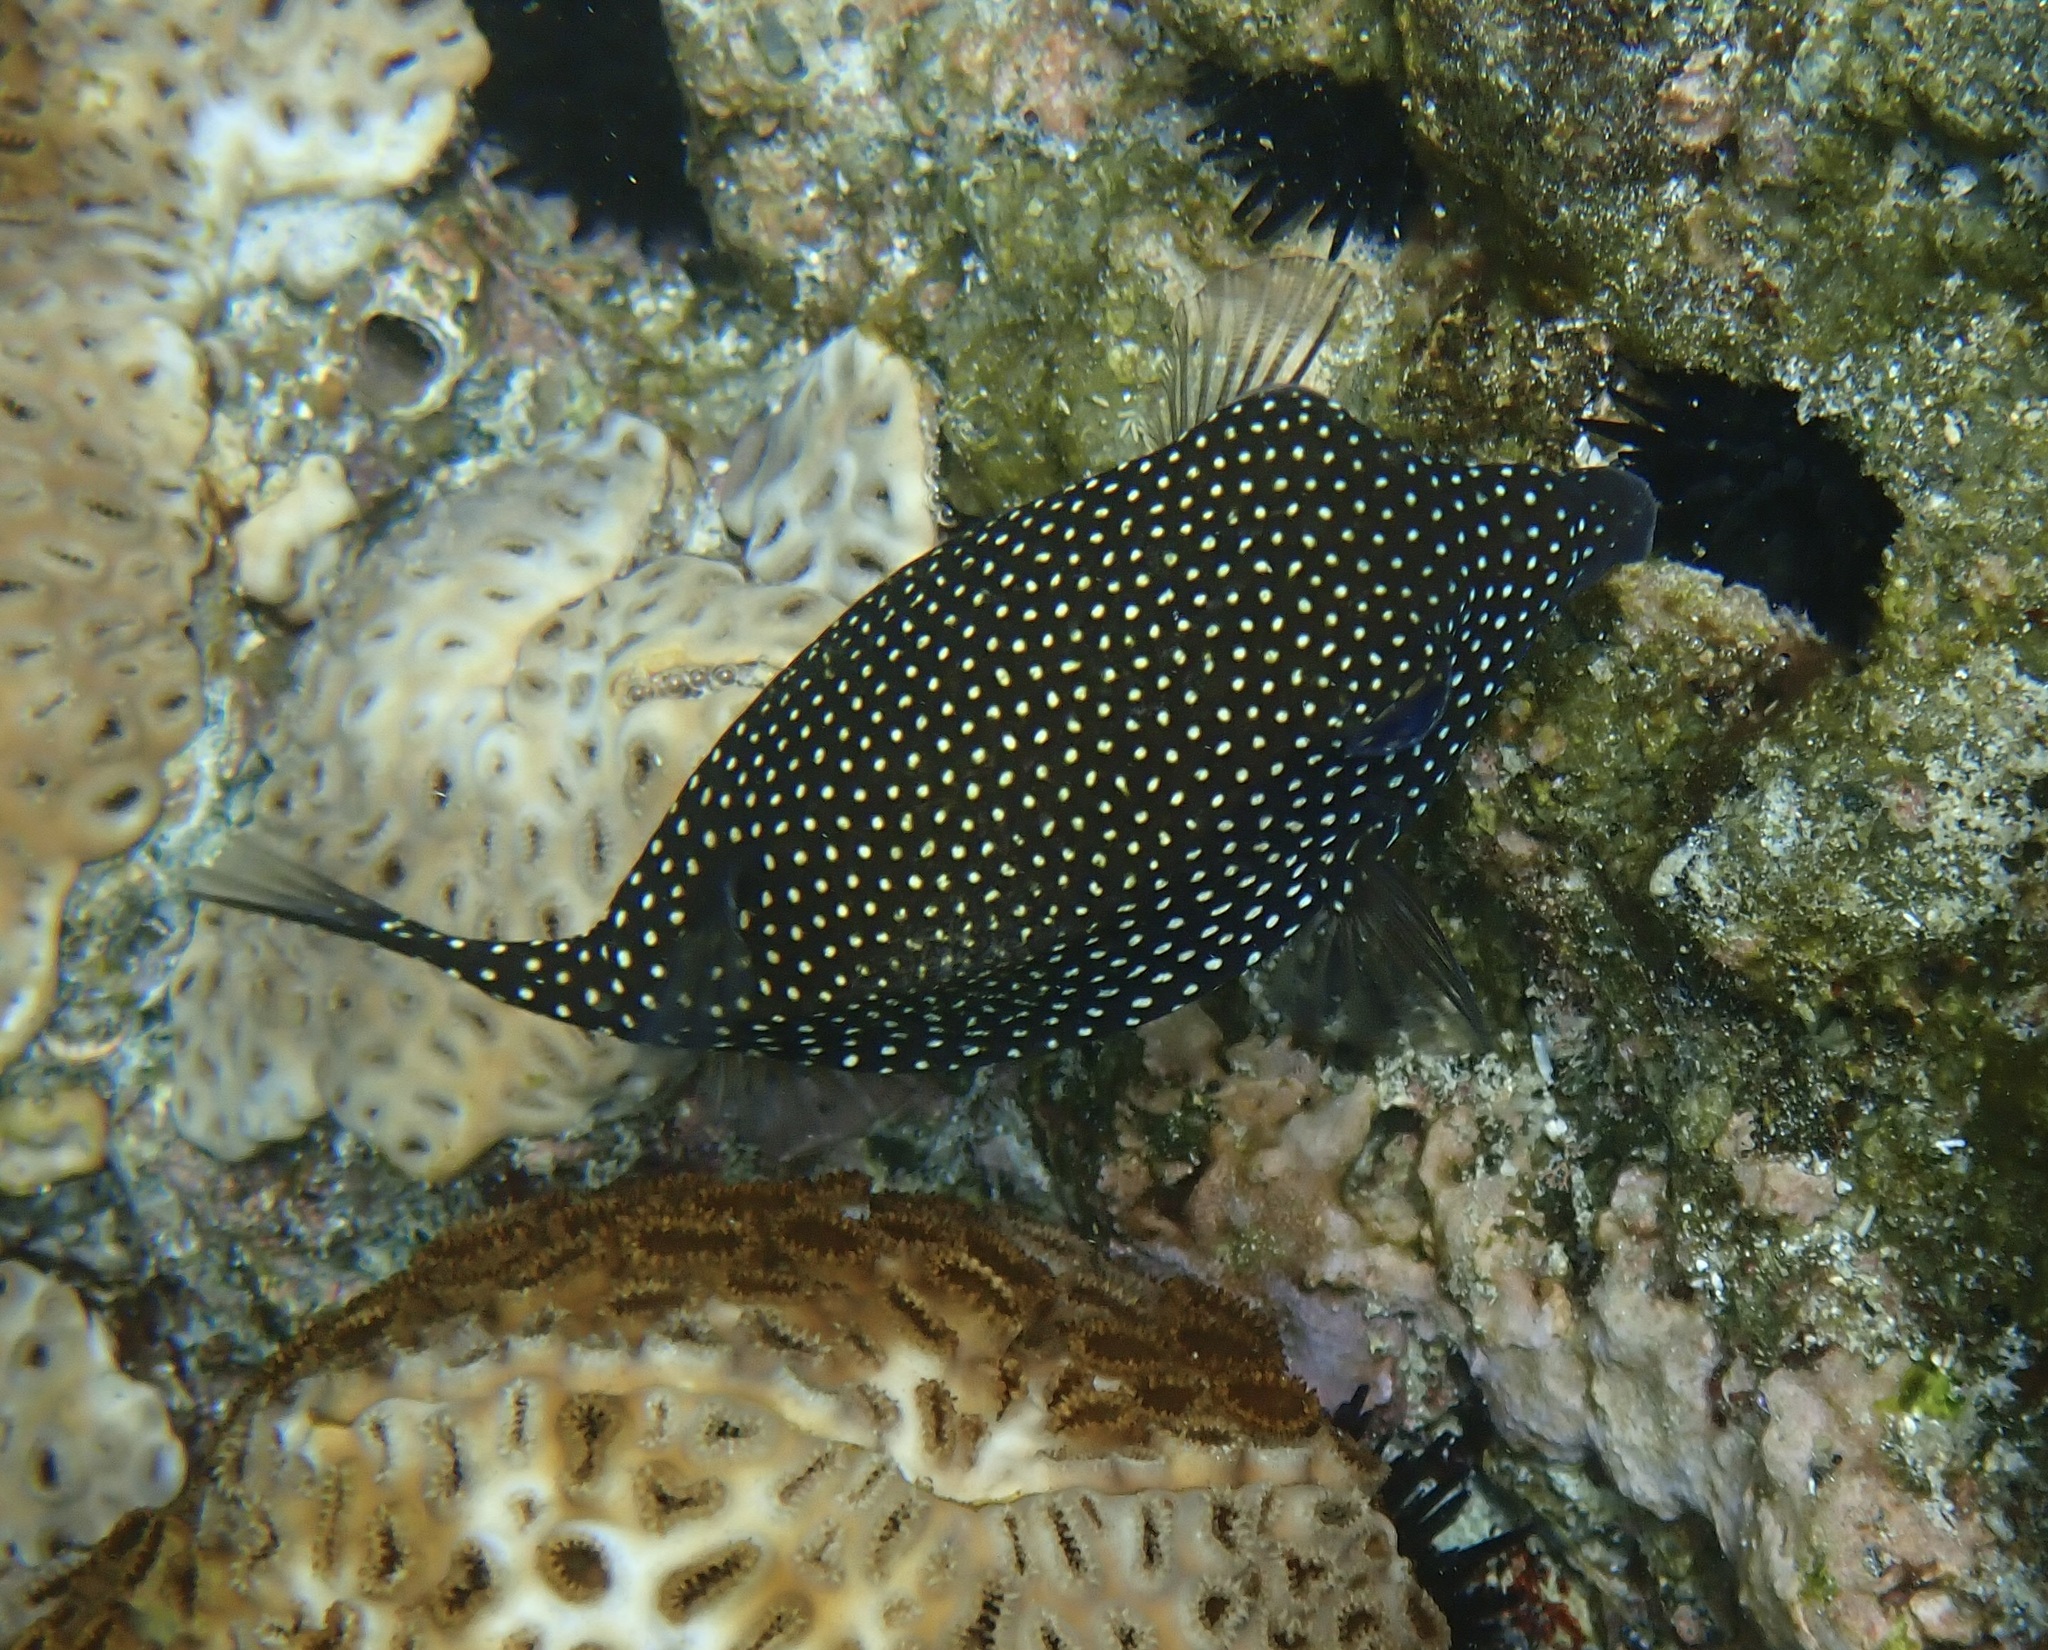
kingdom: Animalia
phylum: Chordata
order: Tetraodontiformes
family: Ostraciidae
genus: Ostracion
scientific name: Ostracion meleagris
